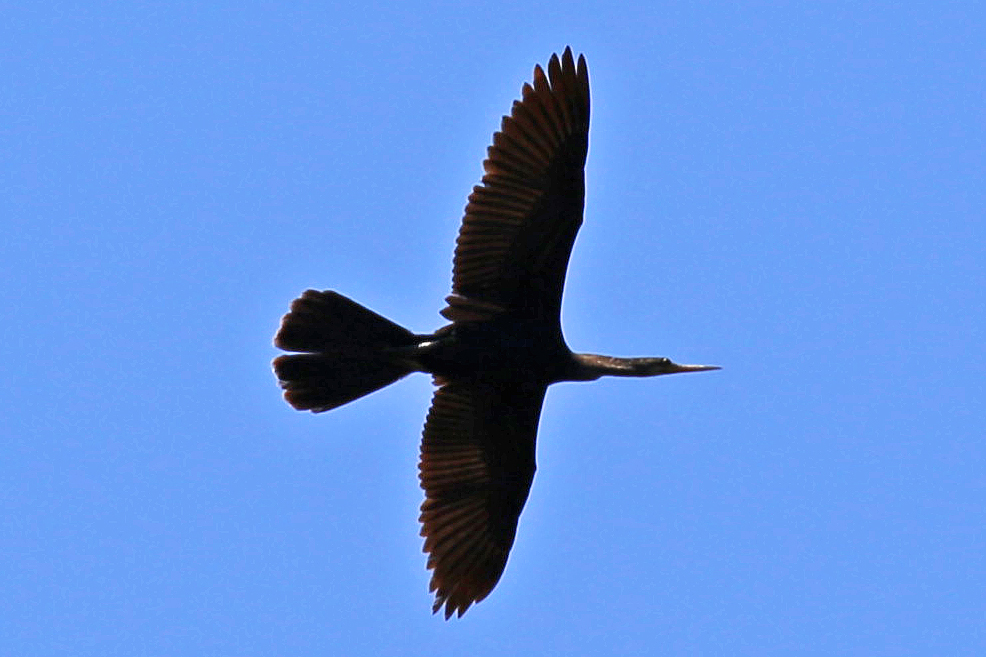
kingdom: Animalia
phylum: Chordata
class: Aves
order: Suliformes
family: Anhingidae
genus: Anhinga
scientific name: Anhinga anhinga
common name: Anhinga
